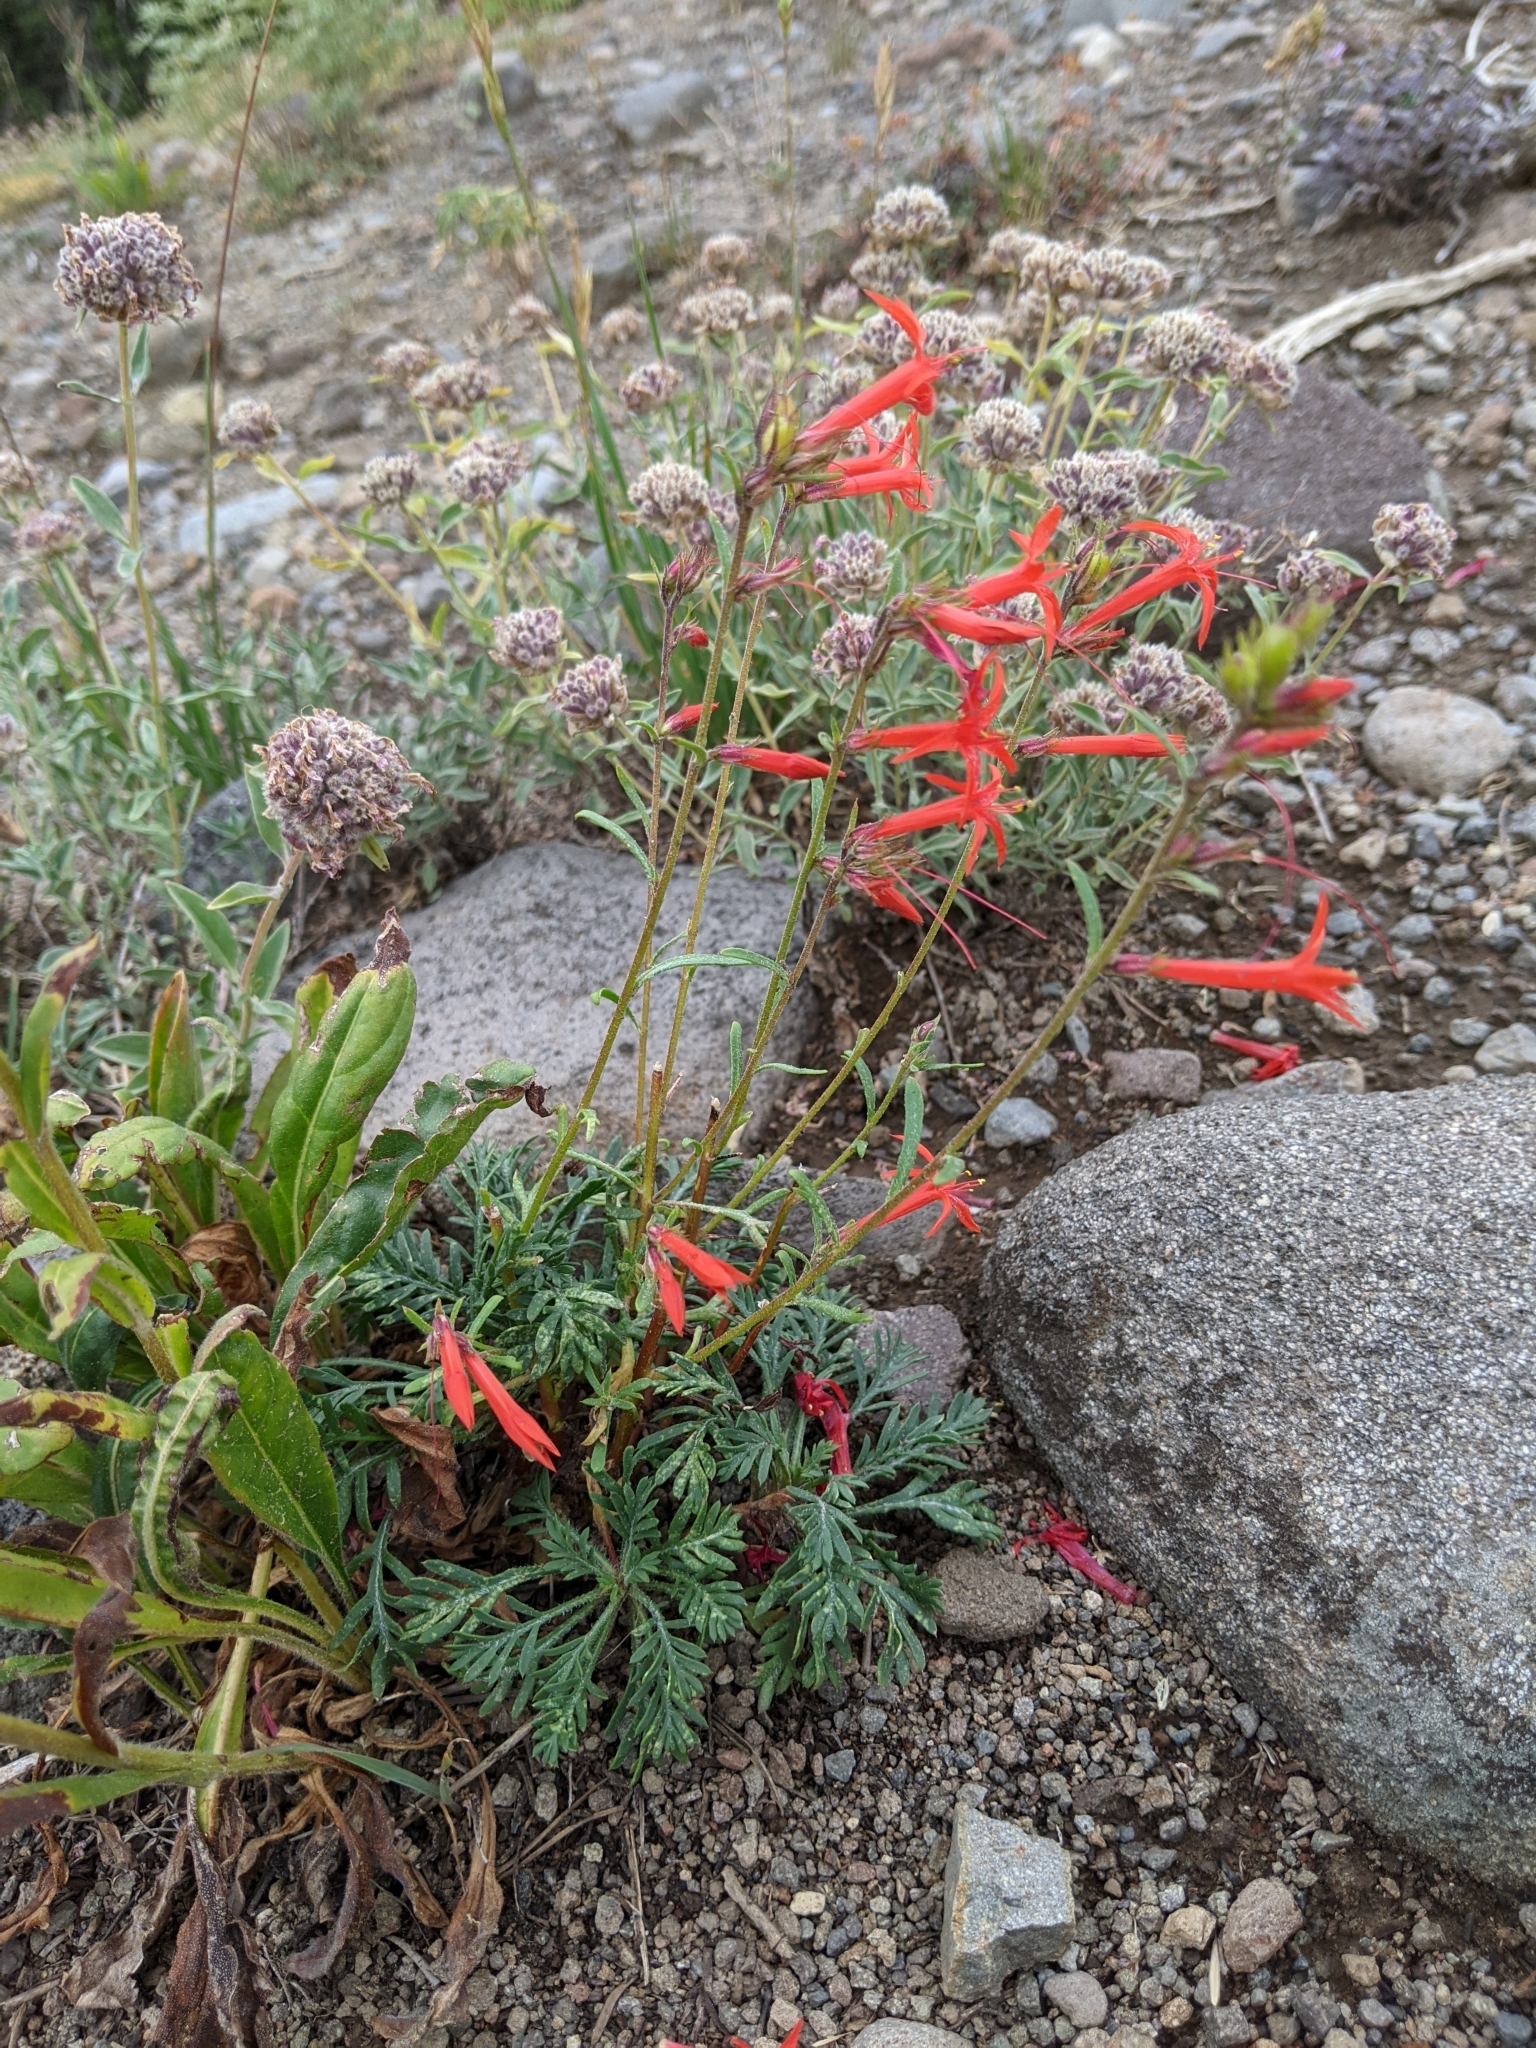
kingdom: Plantae
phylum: Tracheophyta
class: Magnoliopsida
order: Ericales
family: Polemoniaceae
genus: Ipomopsis
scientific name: Ipomopsis aggregata
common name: Scarlet gilia
